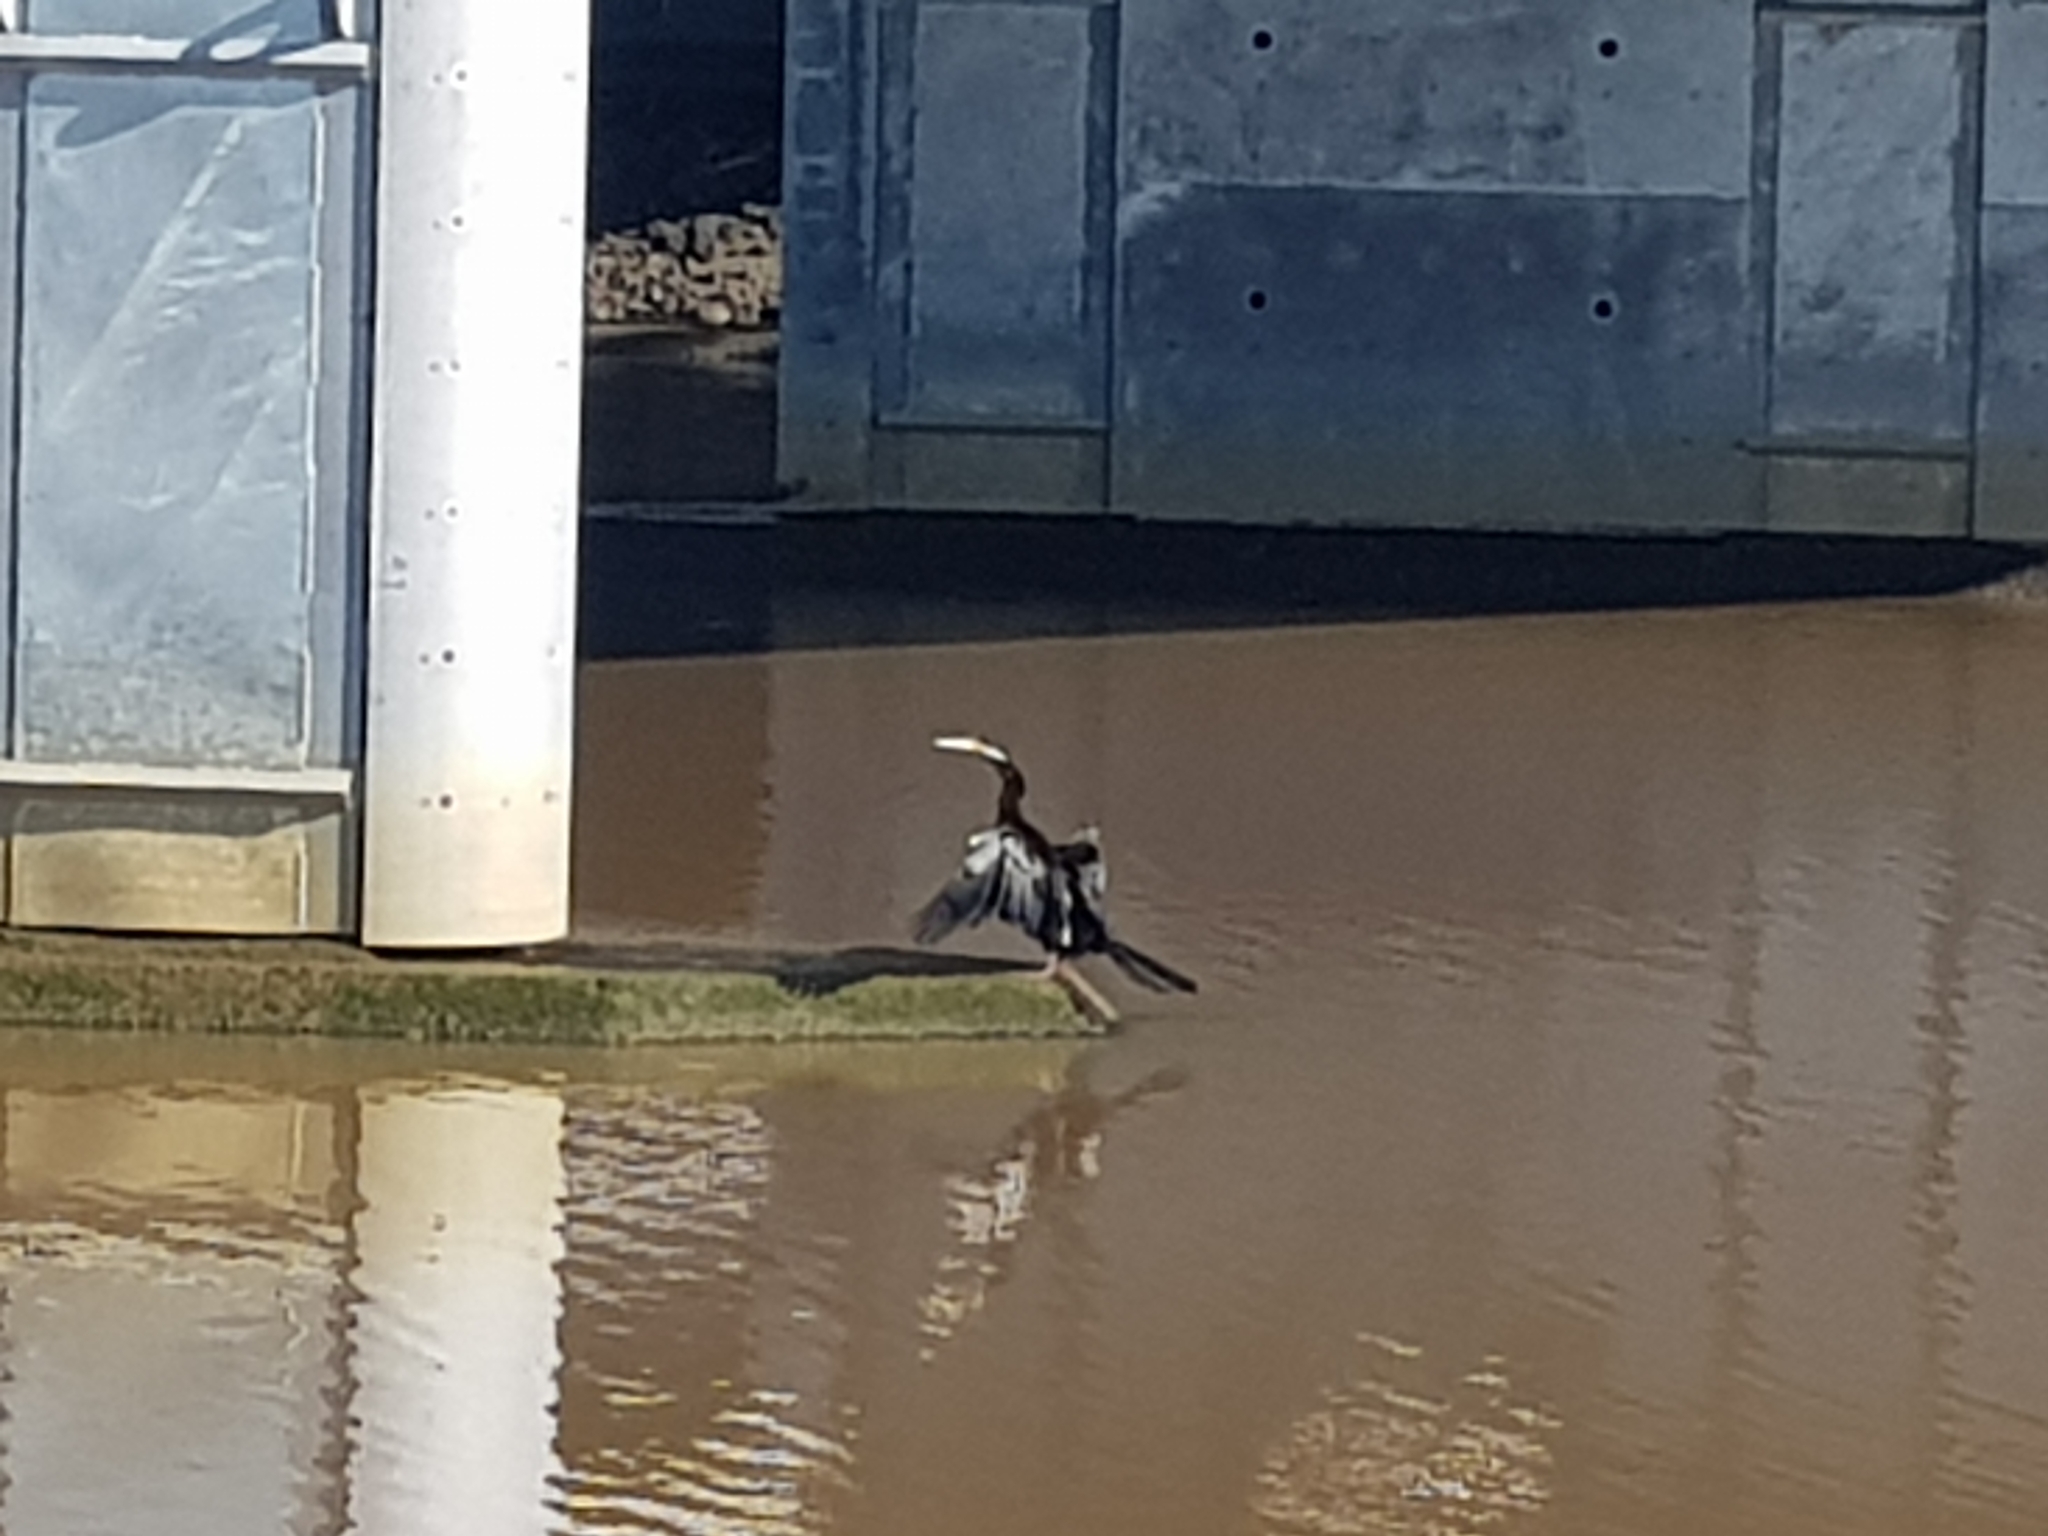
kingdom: Animalia
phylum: Chordata
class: Aves
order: Suliformes
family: Anhingidae
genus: Anhinga
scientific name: Anhinga novaehollandiae
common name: Australasian darter
